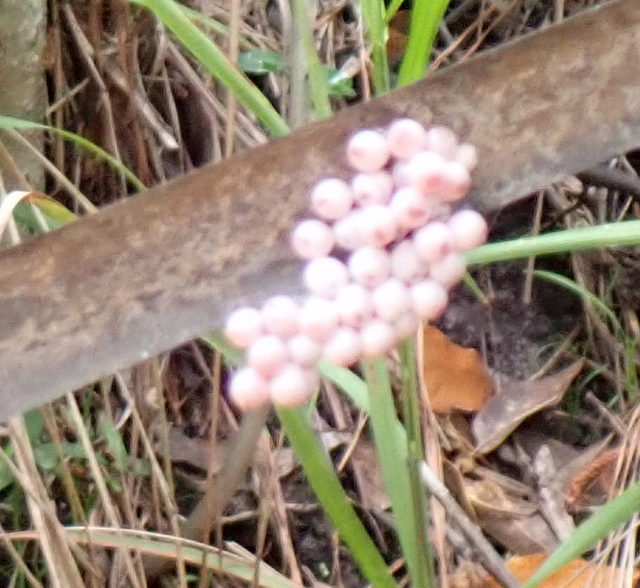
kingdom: Animalia
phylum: Mollusca
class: Gastropoda
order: Architaenioglossa
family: Ampullariidae
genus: Pomacea
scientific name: Pomacea paludosa
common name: Florida applesnail
